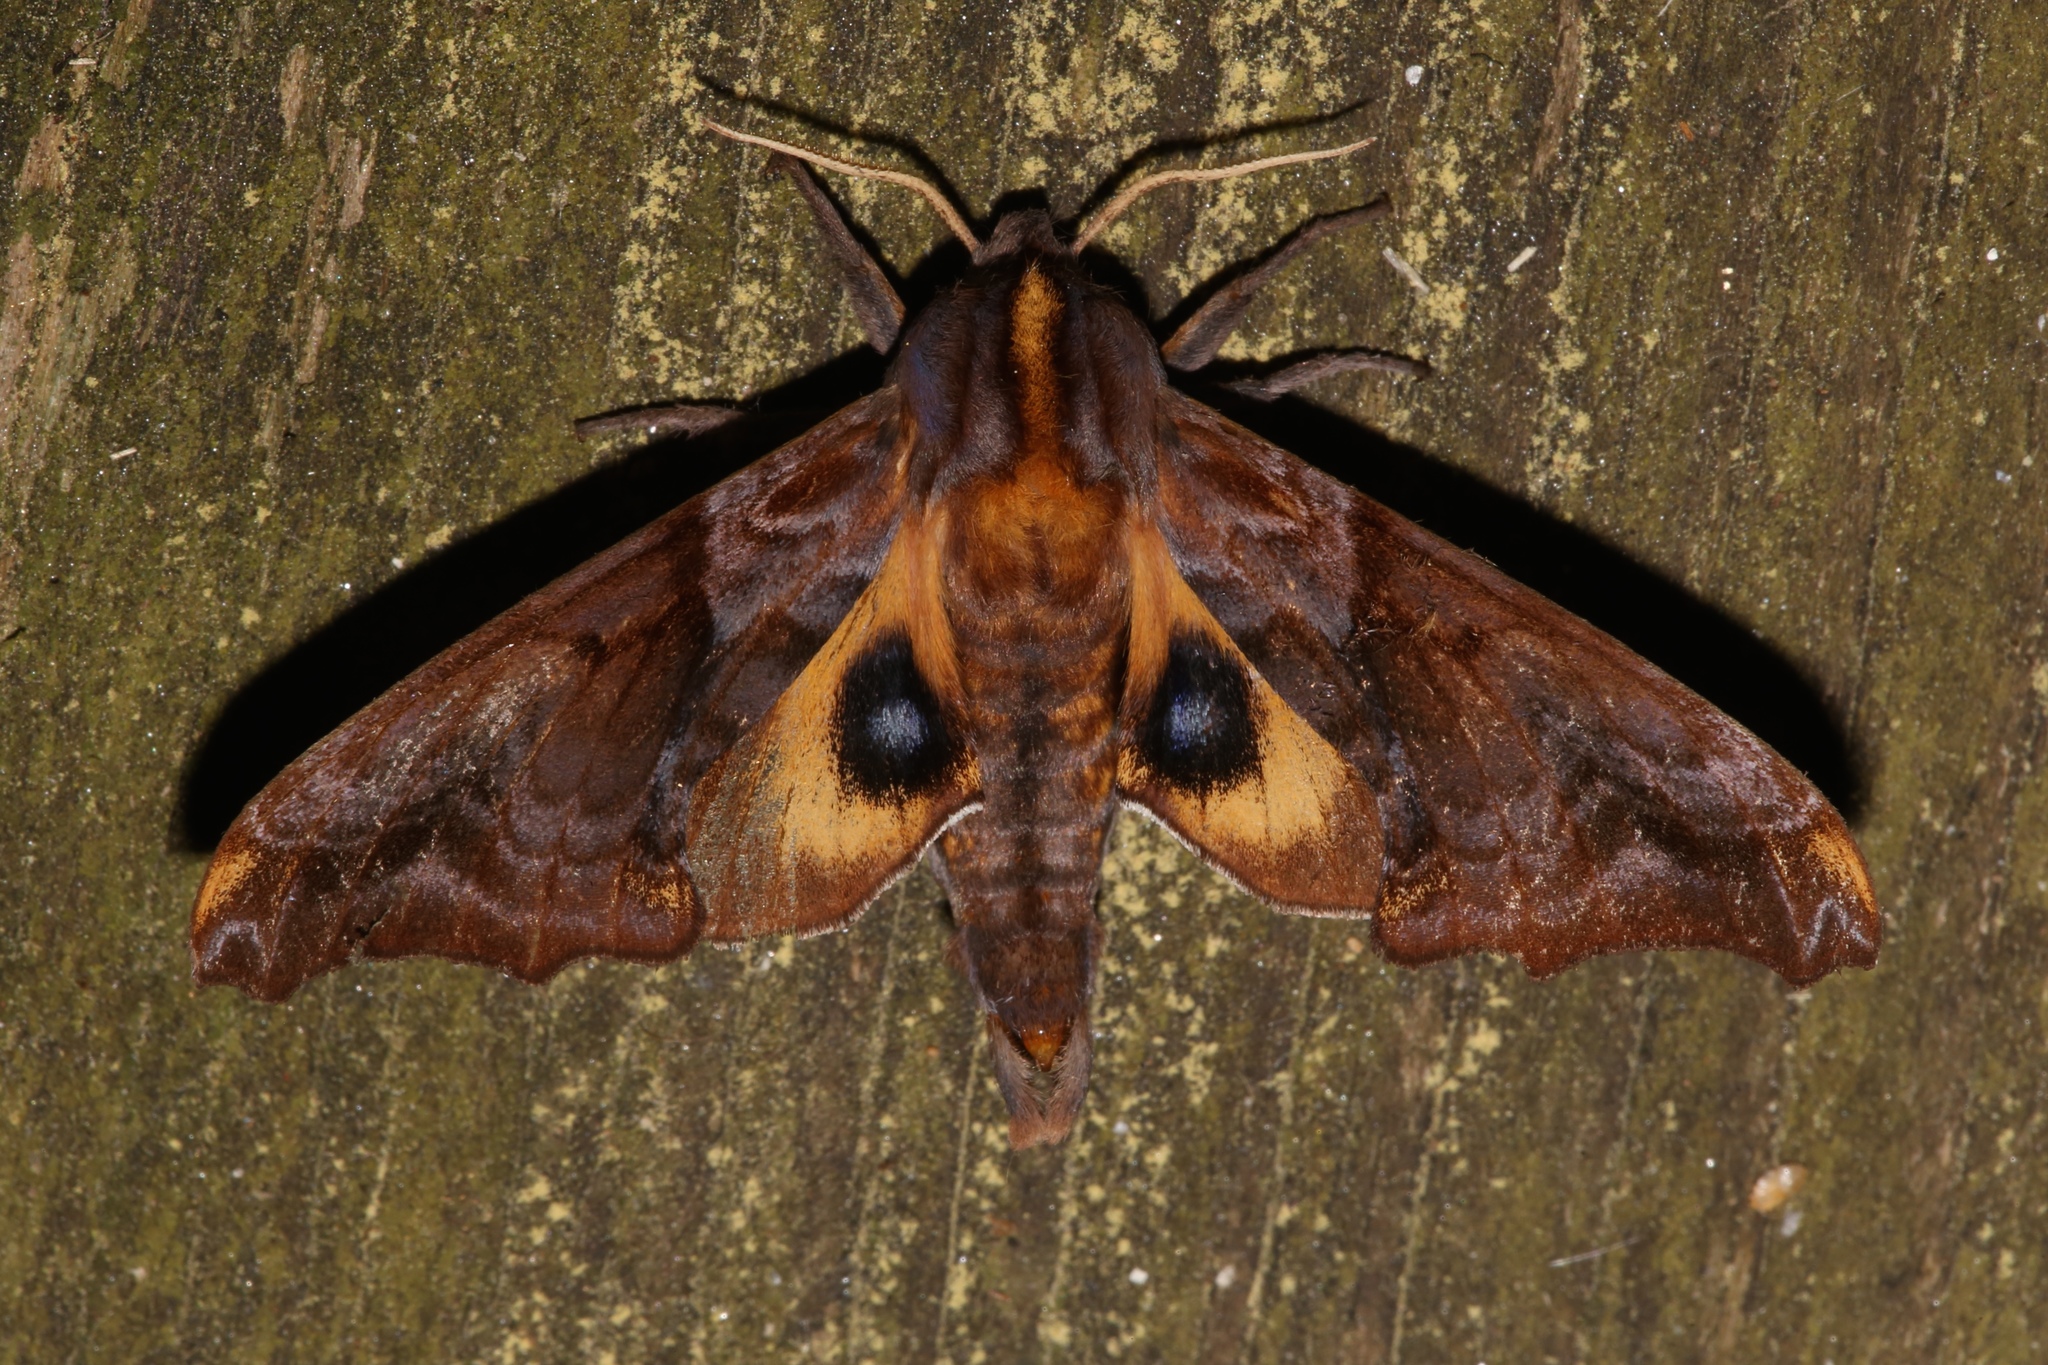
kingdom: Animalia
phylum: Arthropoda
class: Insecta
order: Lepidoptera
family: Sphingidae
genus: Paonias
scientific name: Paonias myops
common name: Small-eyed sphinx
